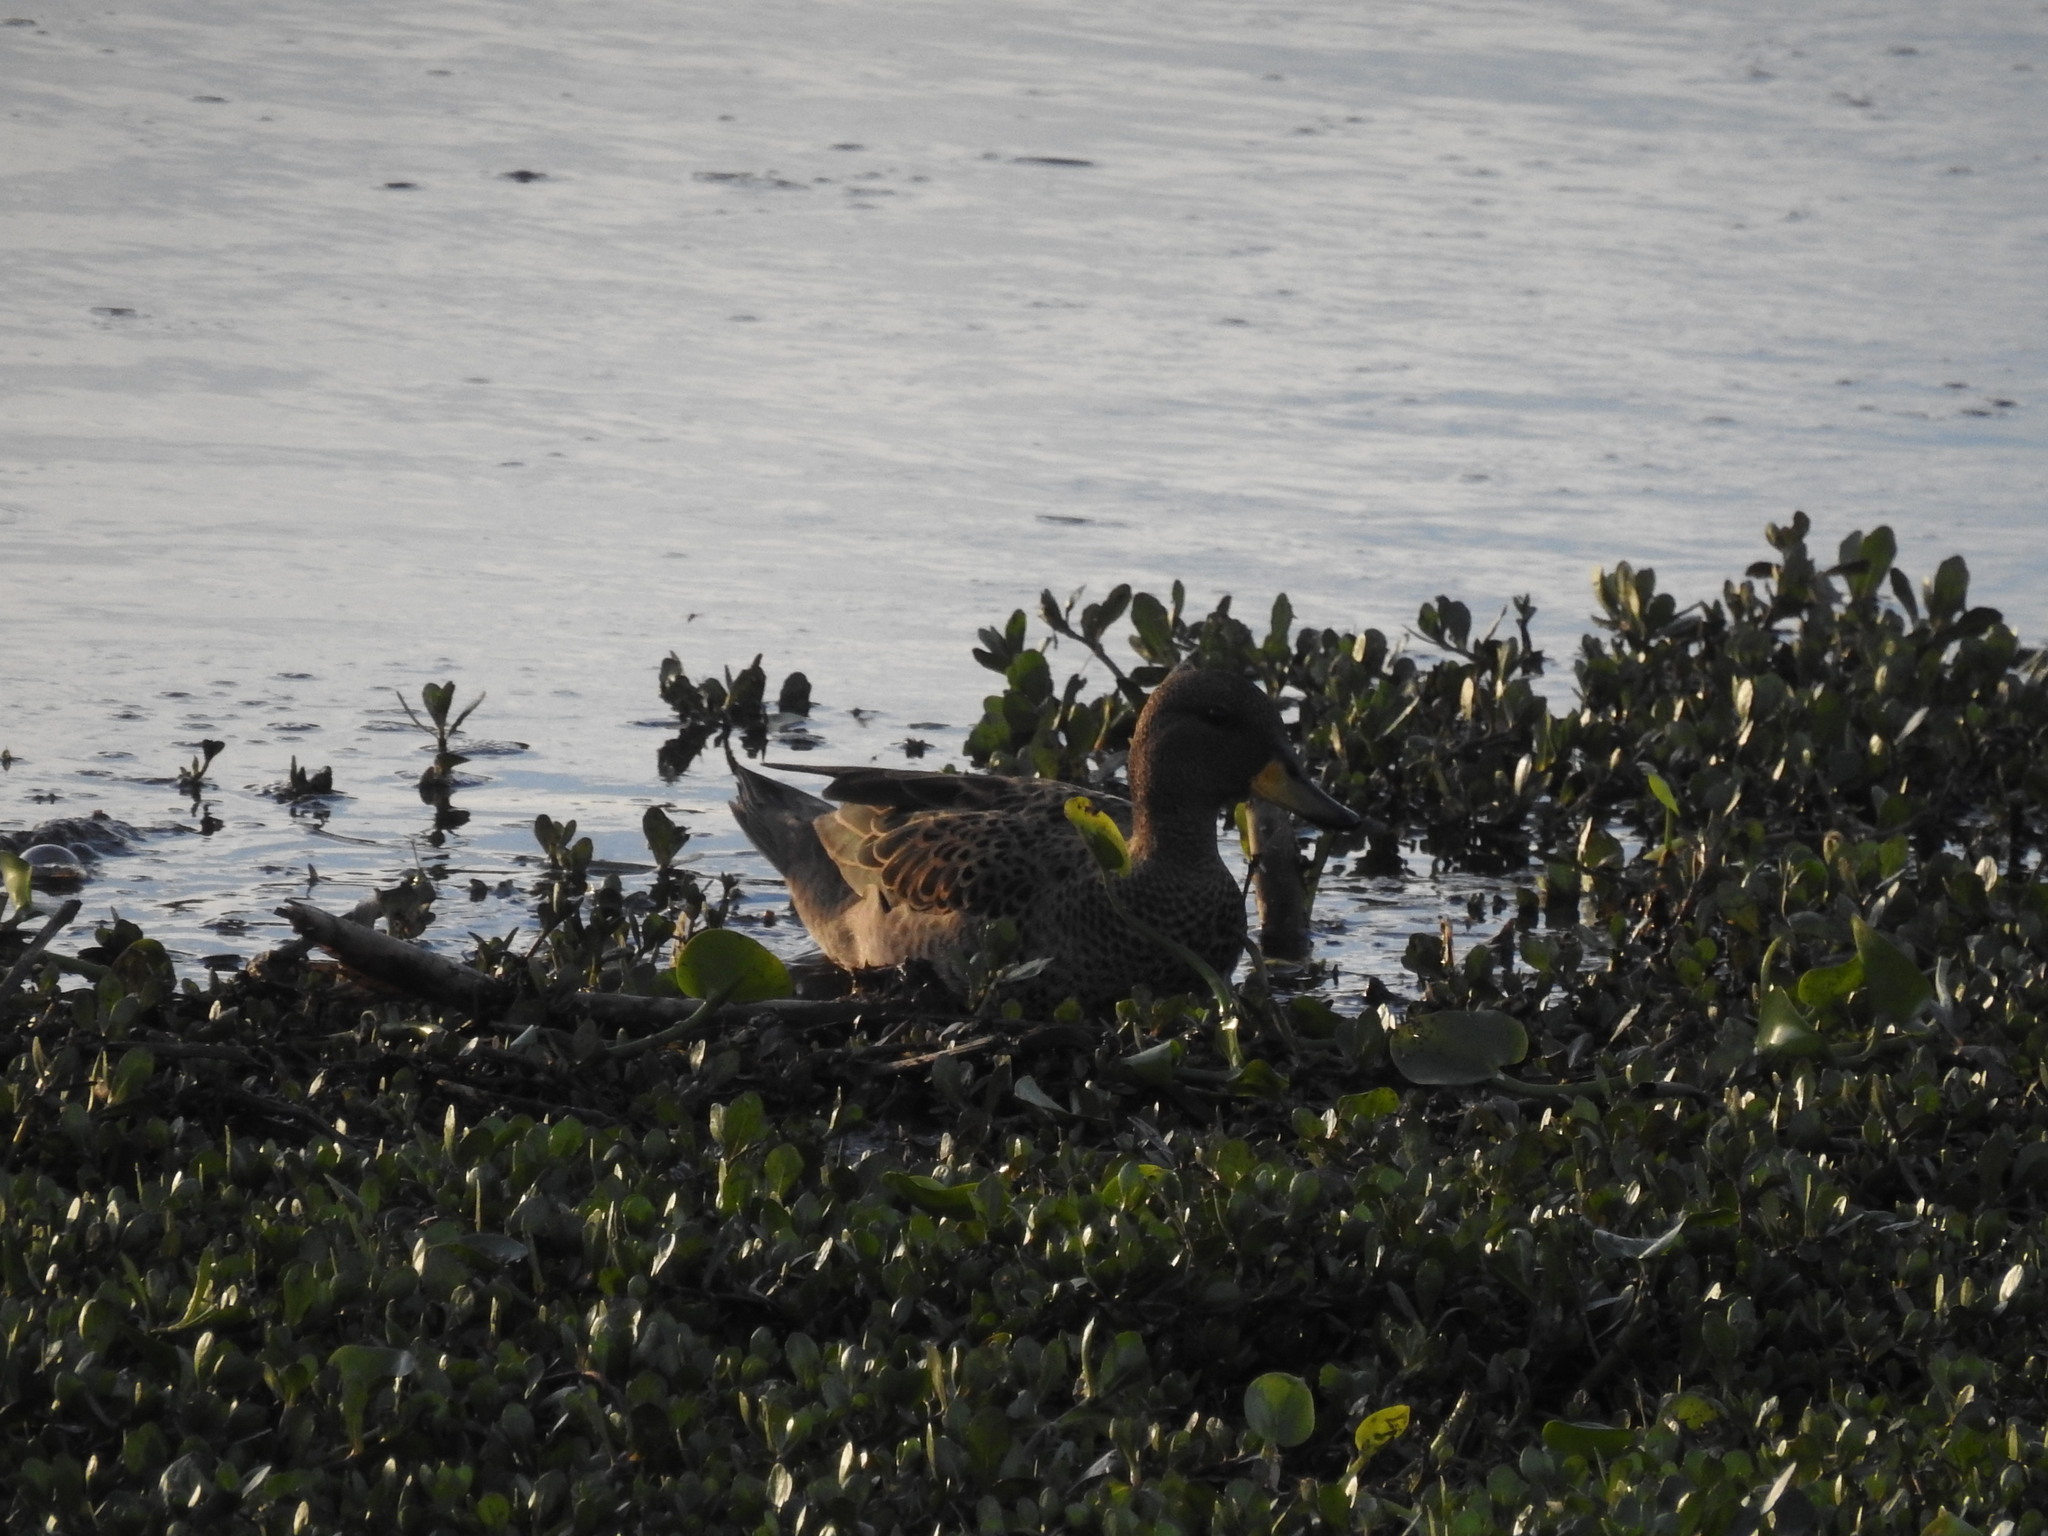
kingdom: Animalia
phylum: Chordata
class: Aves
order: Anseriformes
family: Anatidae
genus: Anas
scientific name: Anas flavirostris
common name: Yellow-billed teal
